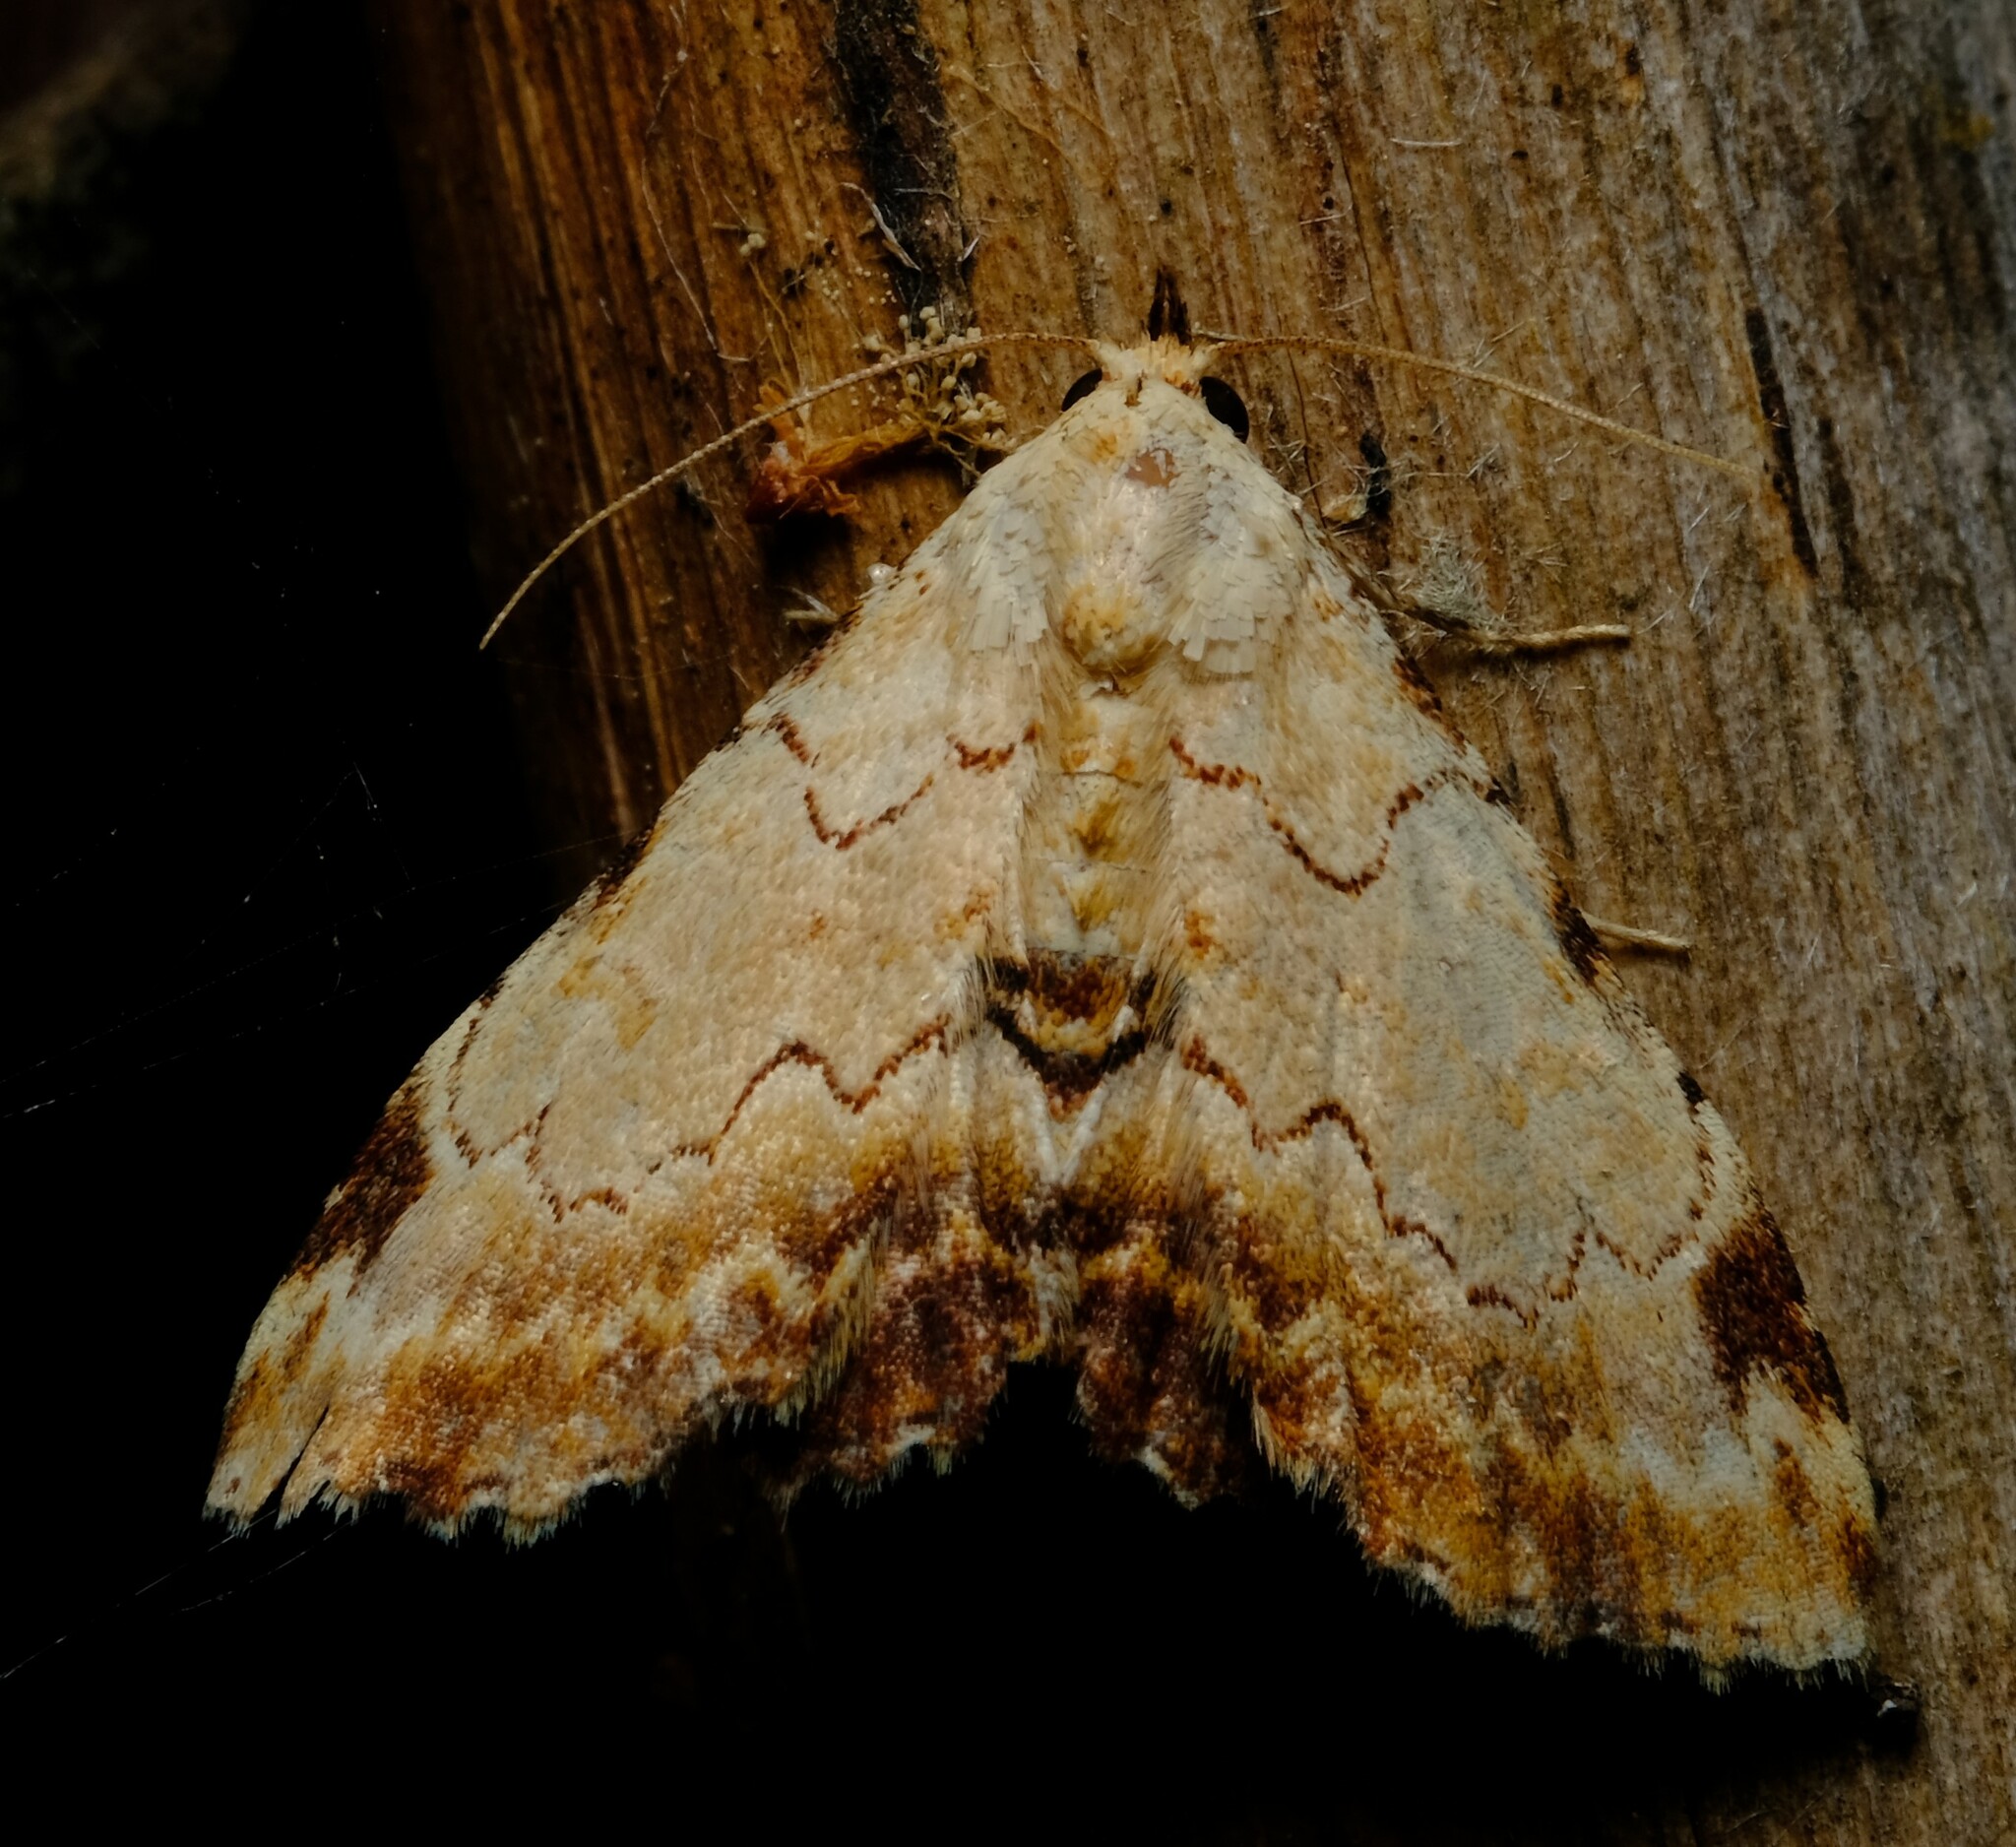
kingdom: Animalia
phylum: Arthropoda
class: Insecta
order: Lepidoptera
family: Erebidae
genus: Sandava
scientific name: Sandava xylistis
